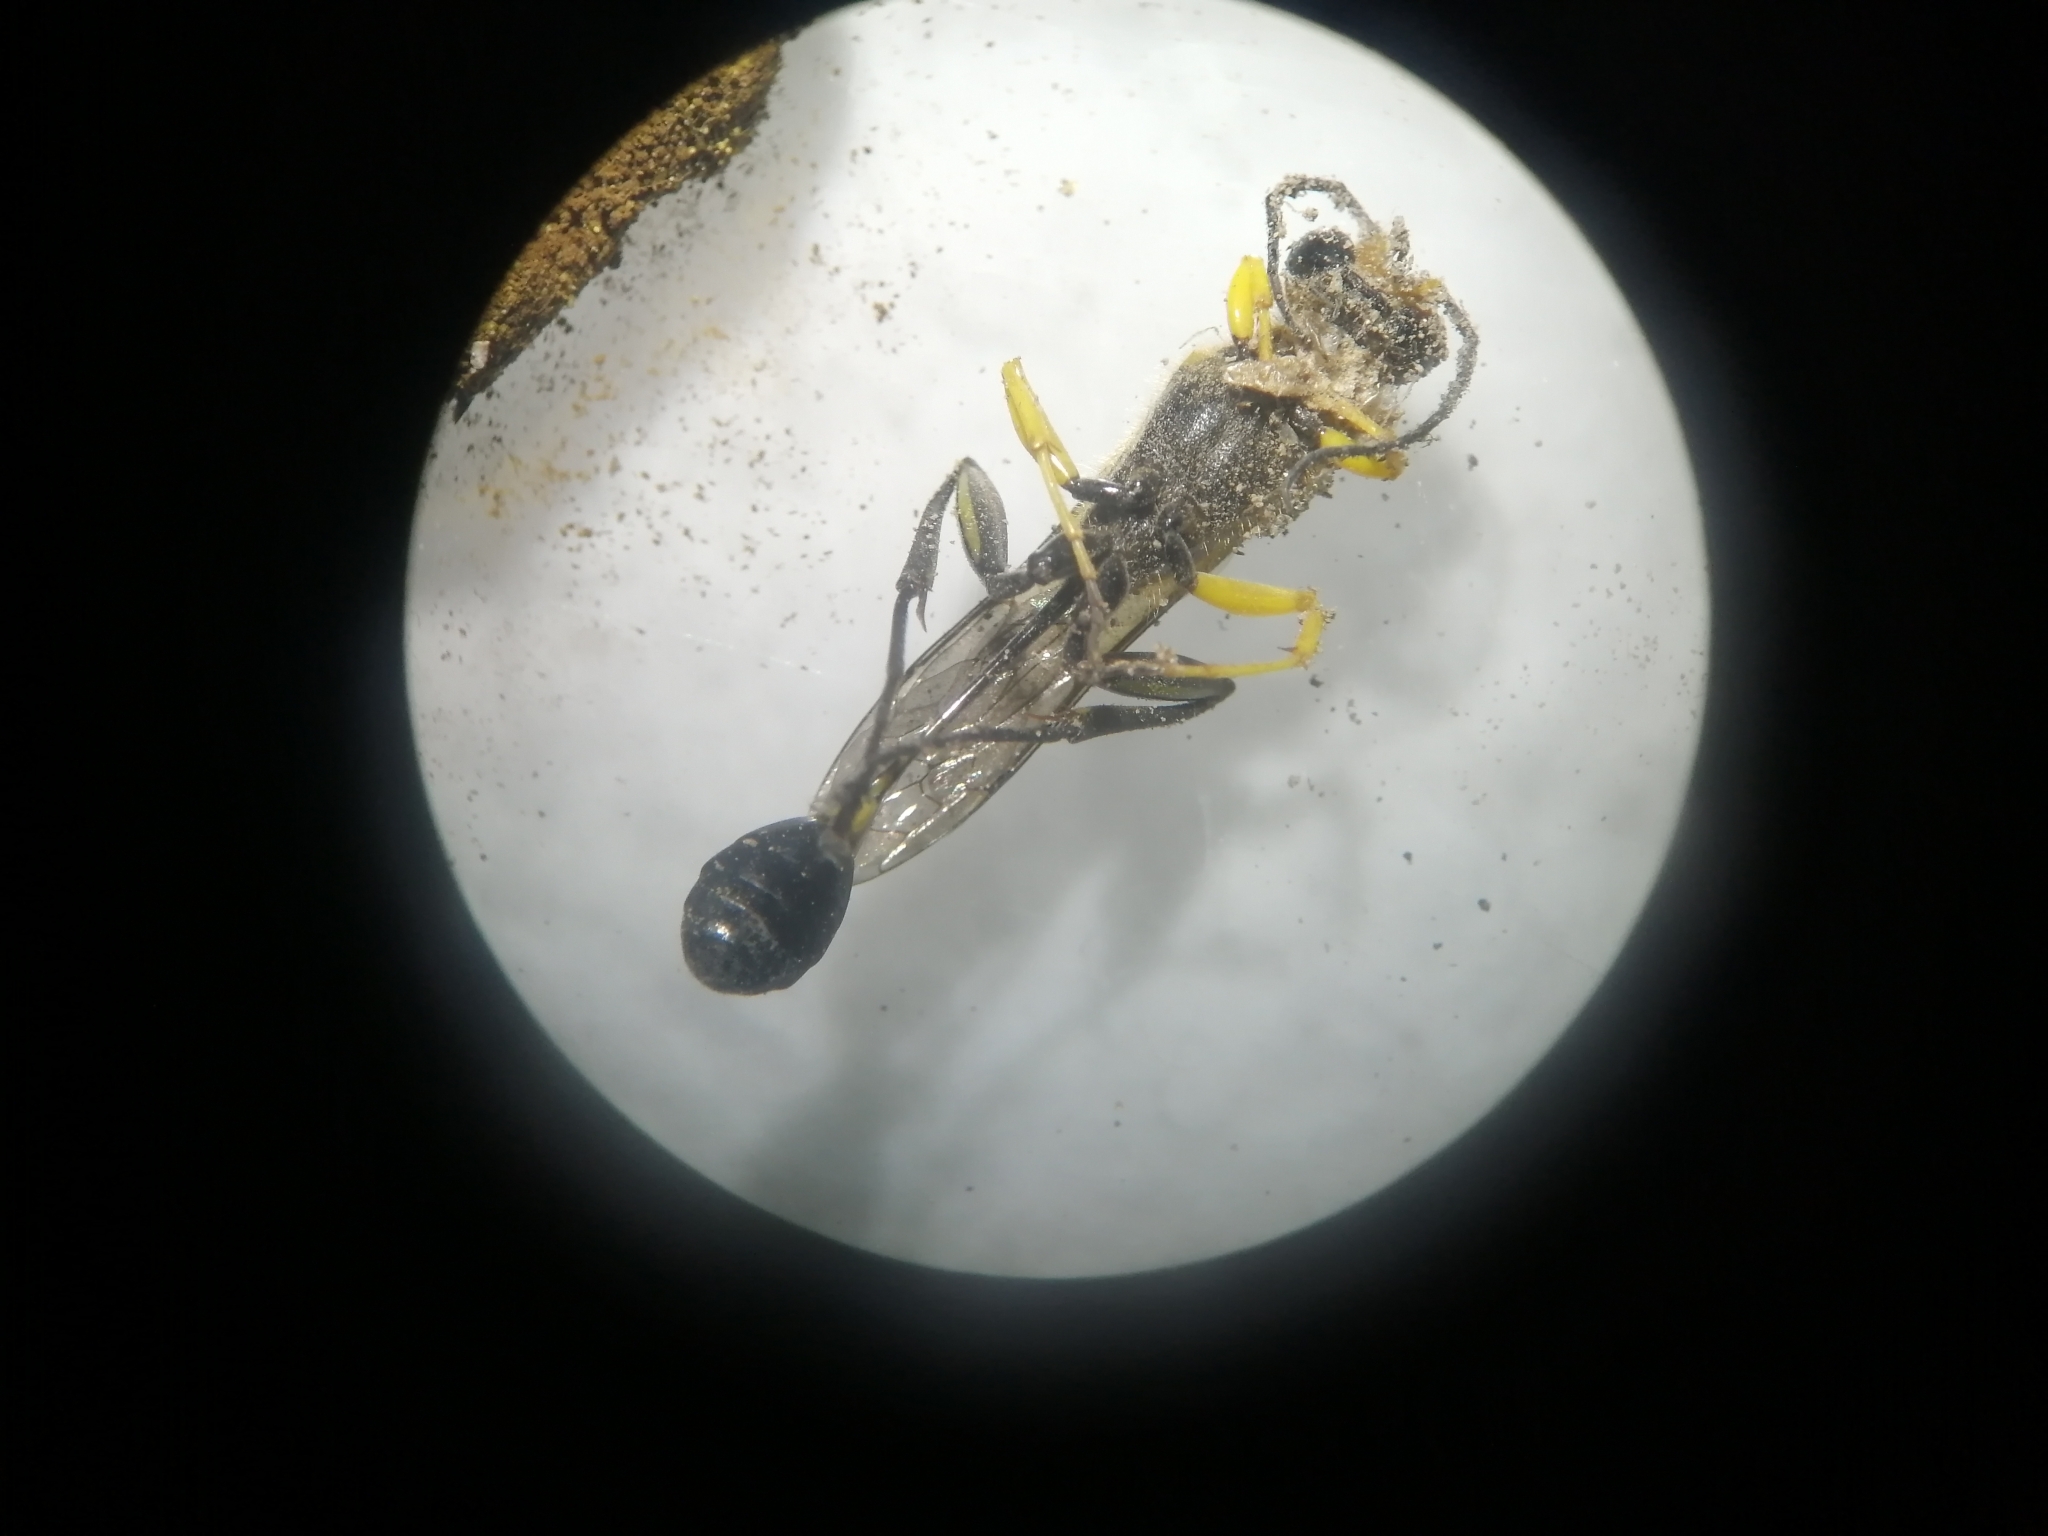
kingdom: Animalia
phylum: Arthropoda
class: Insecta
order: Hymenoptera
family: Sphecidae
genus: Sceliphron
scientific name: Sceliphron assimile
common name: Clayman's mud dauber
